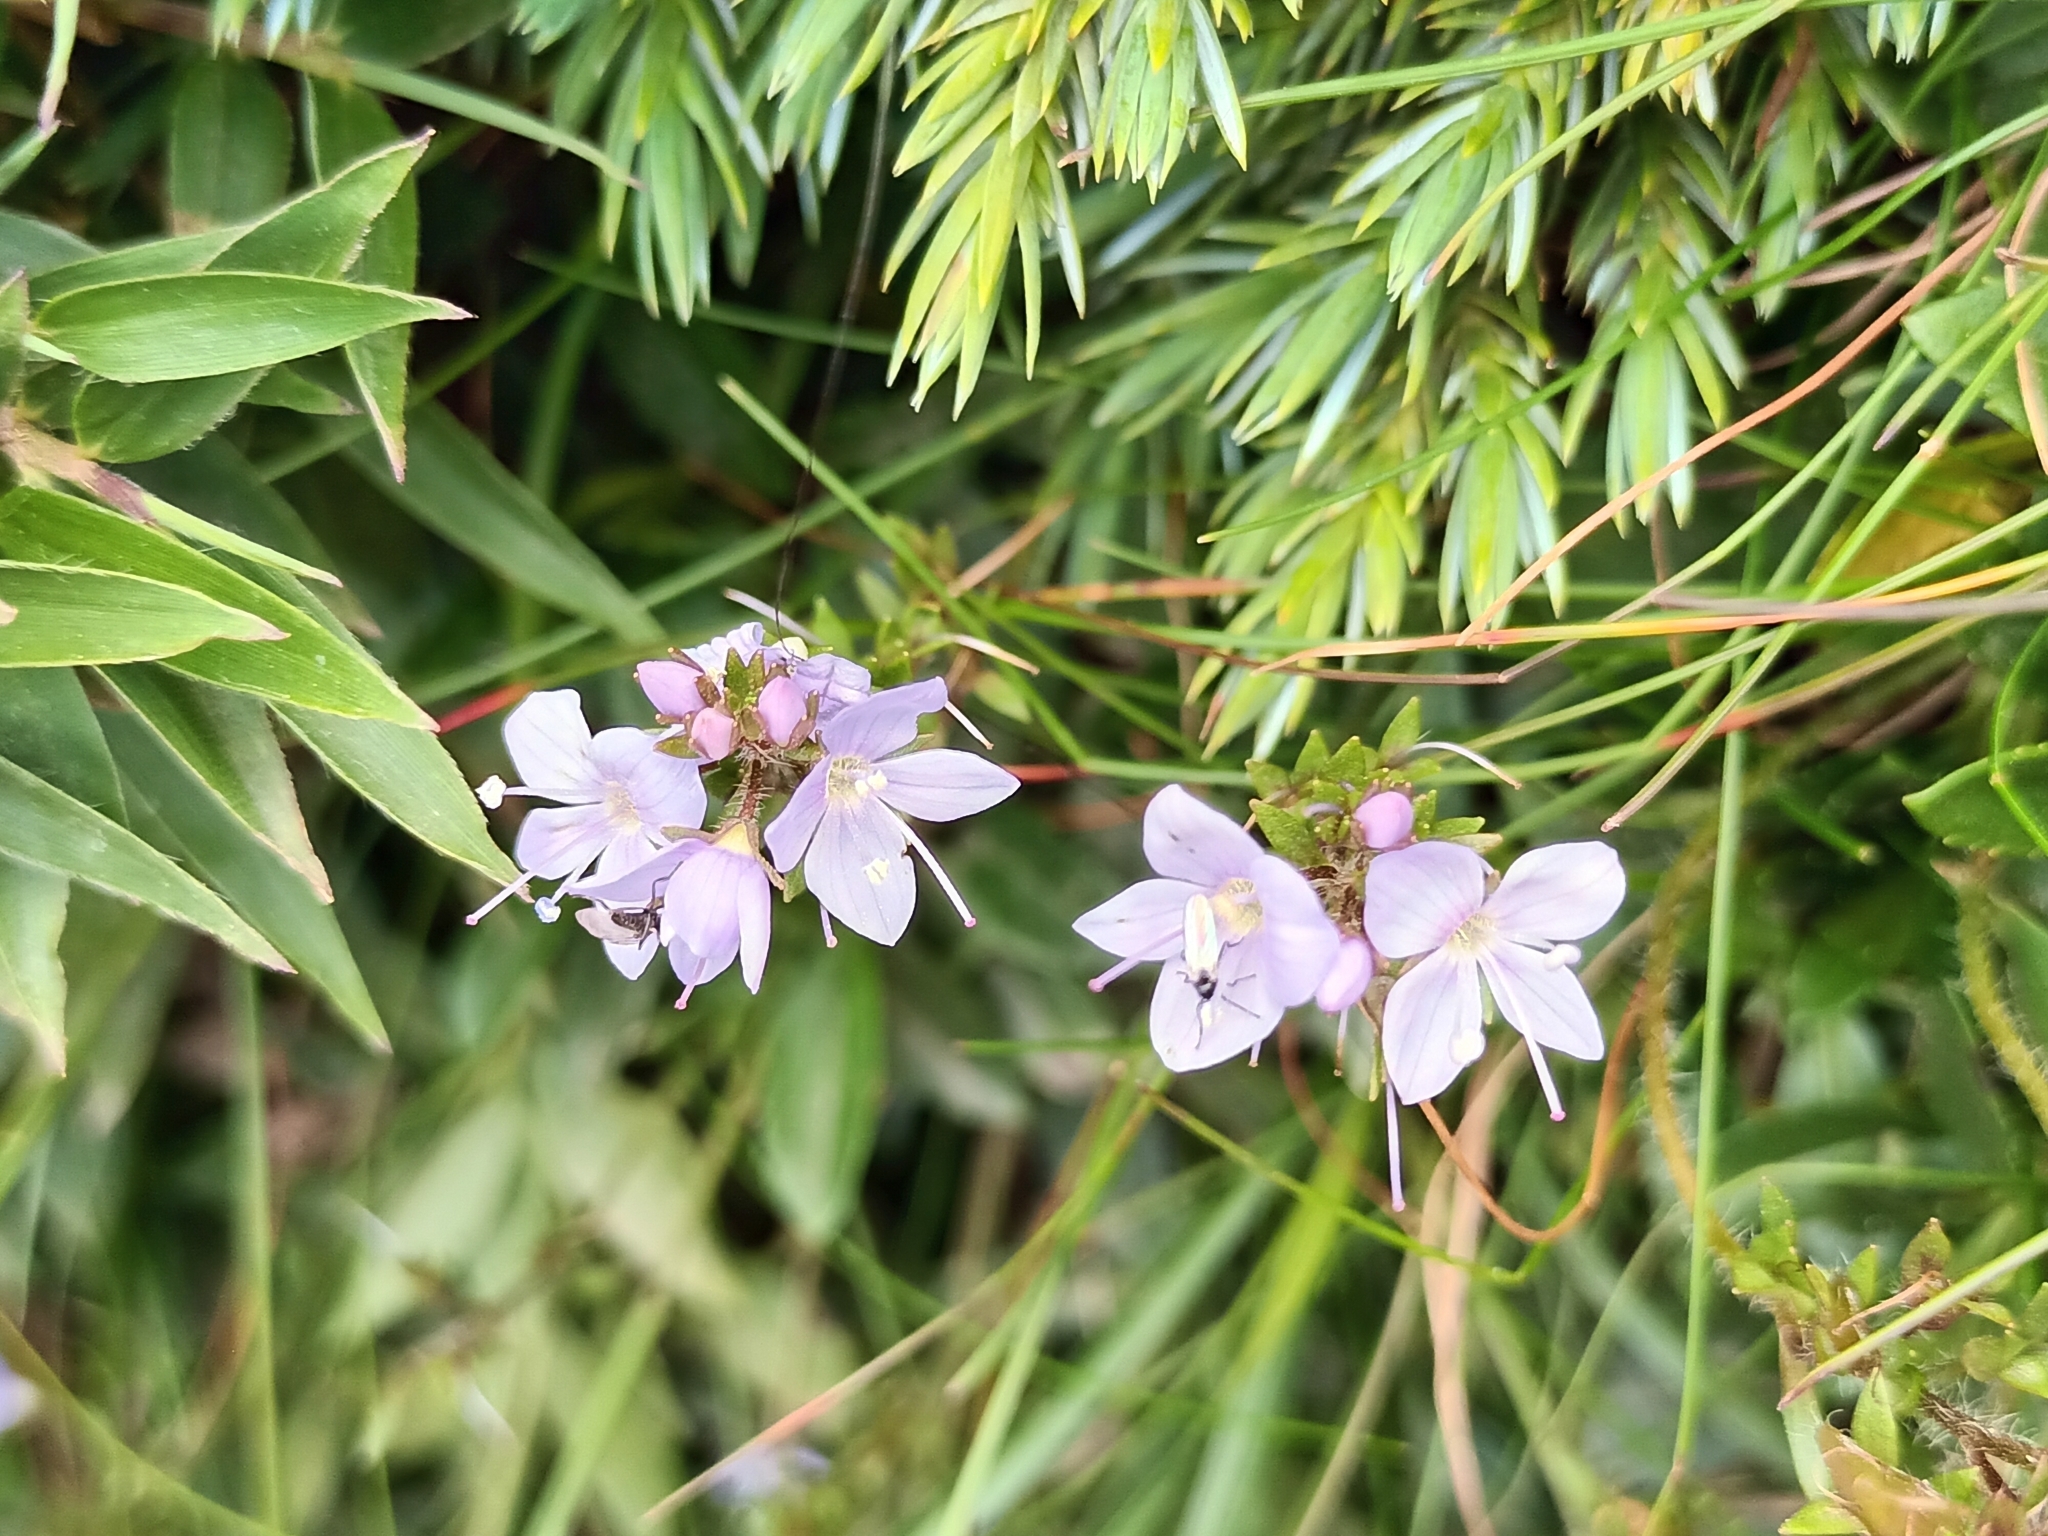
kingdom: Plantae
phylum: Tracheophyta
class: Magnoliopsida
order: Lamiales
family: Plantaginaceae
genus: Veronica
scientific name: Veronica morrisonicola
